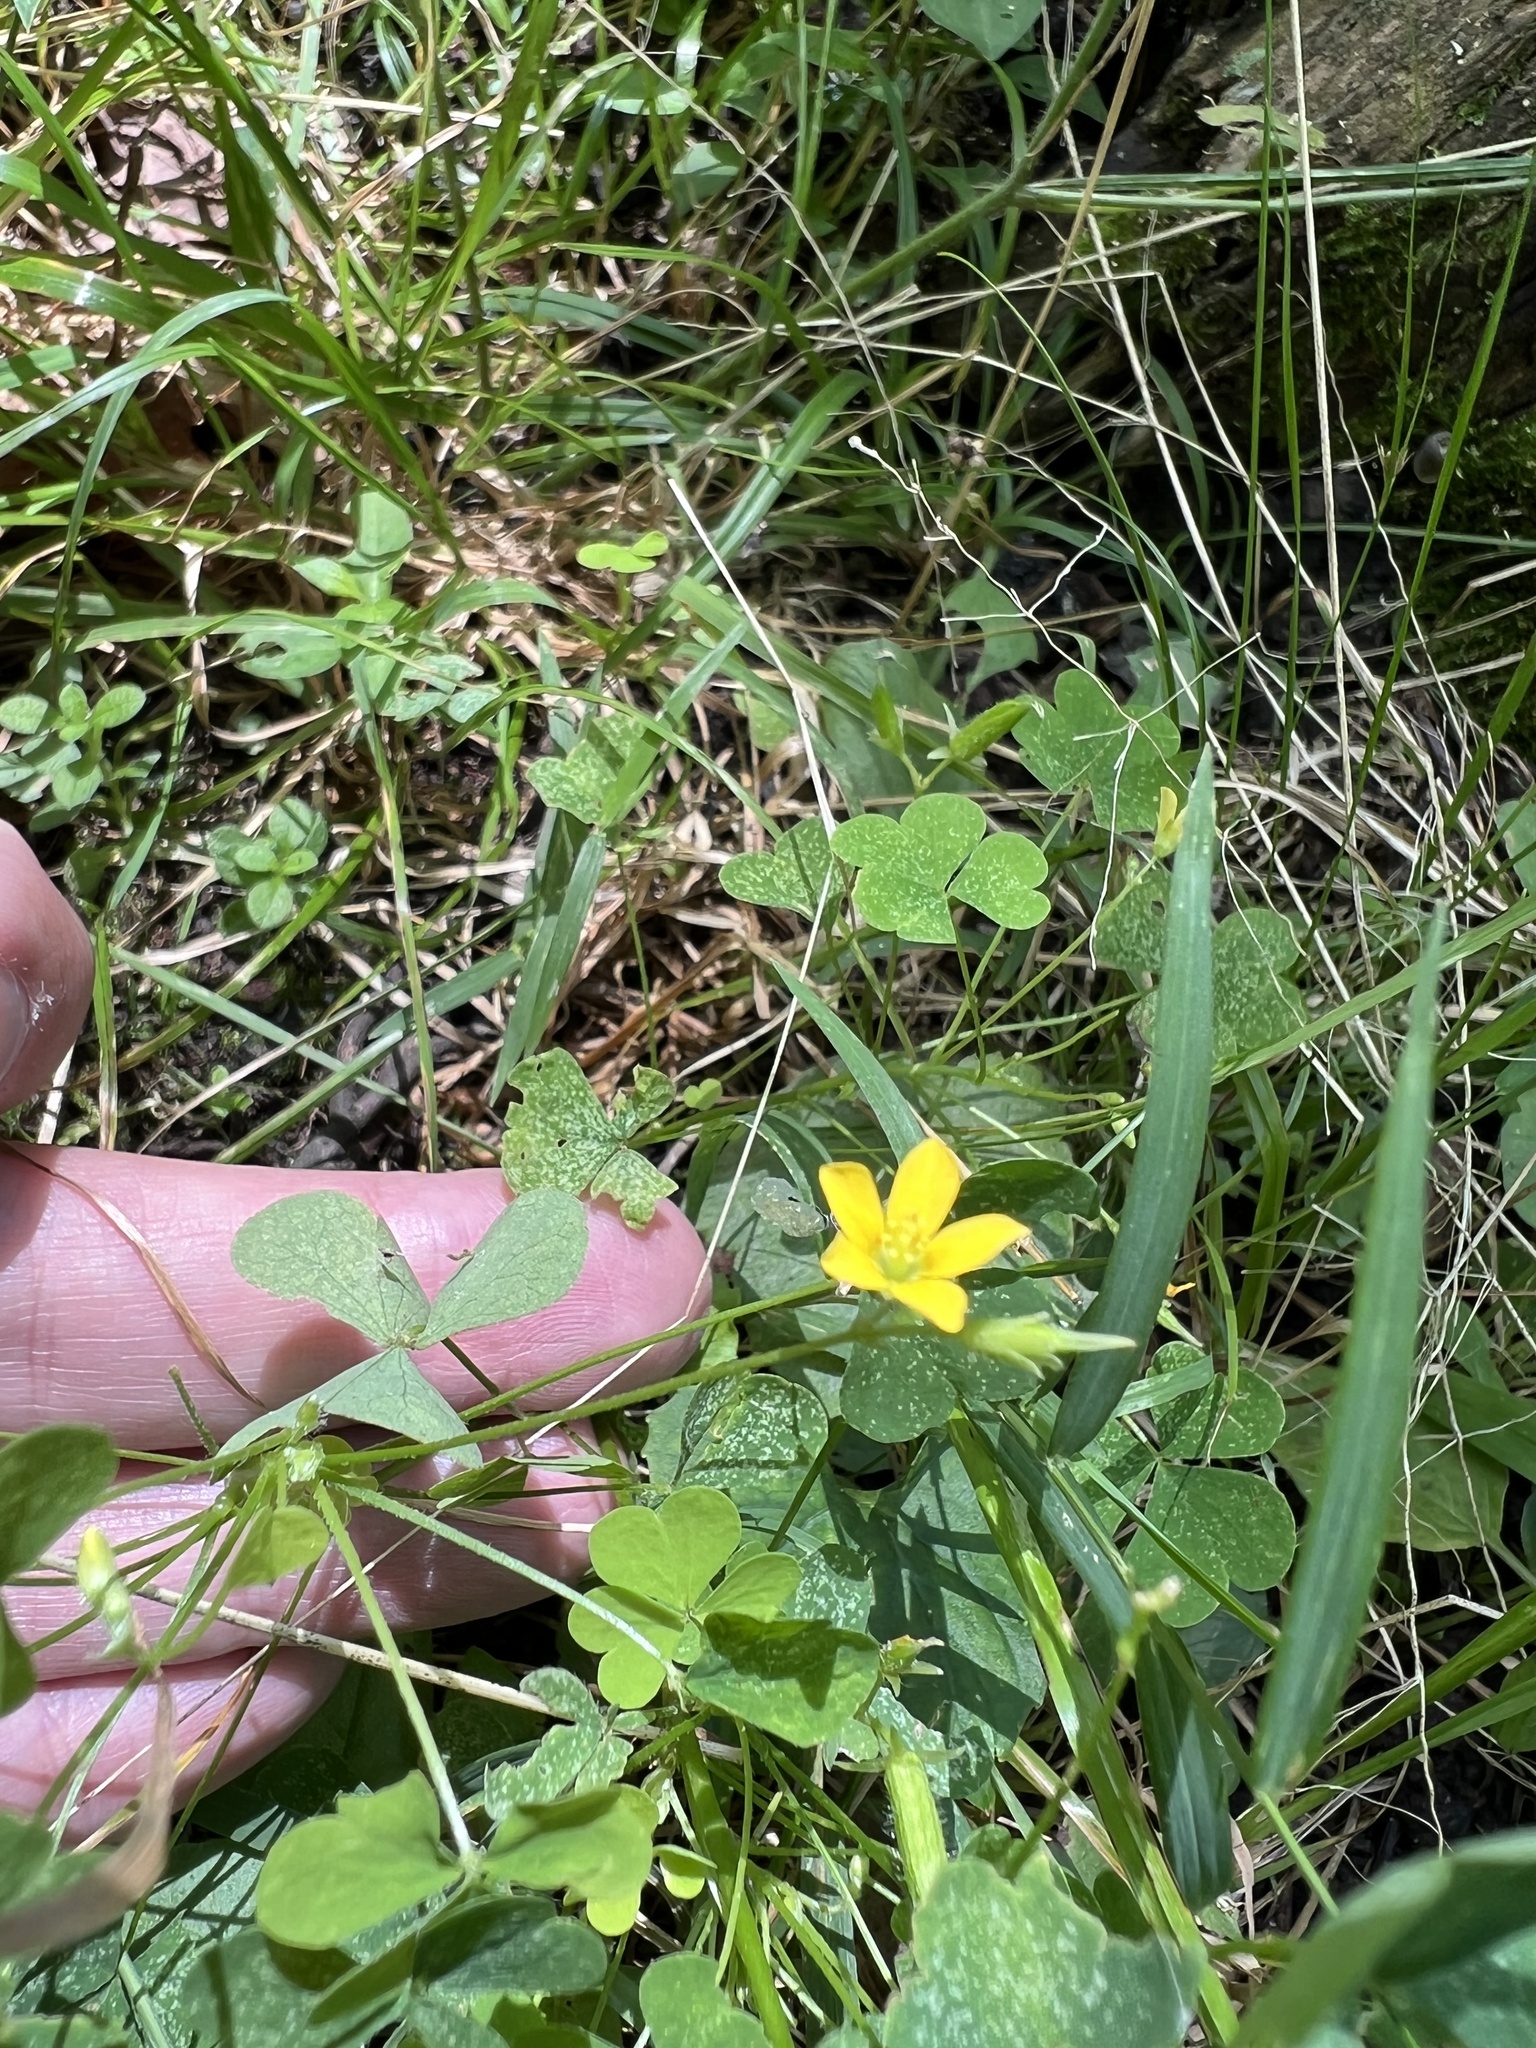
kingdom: Plantae
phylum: Tracheophyta
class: Magnoliopsida
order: Oxalidales
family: Oxalidaceae
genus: Oxalis
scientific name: Oxalis stricta
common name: Upright yellow-sorrel
